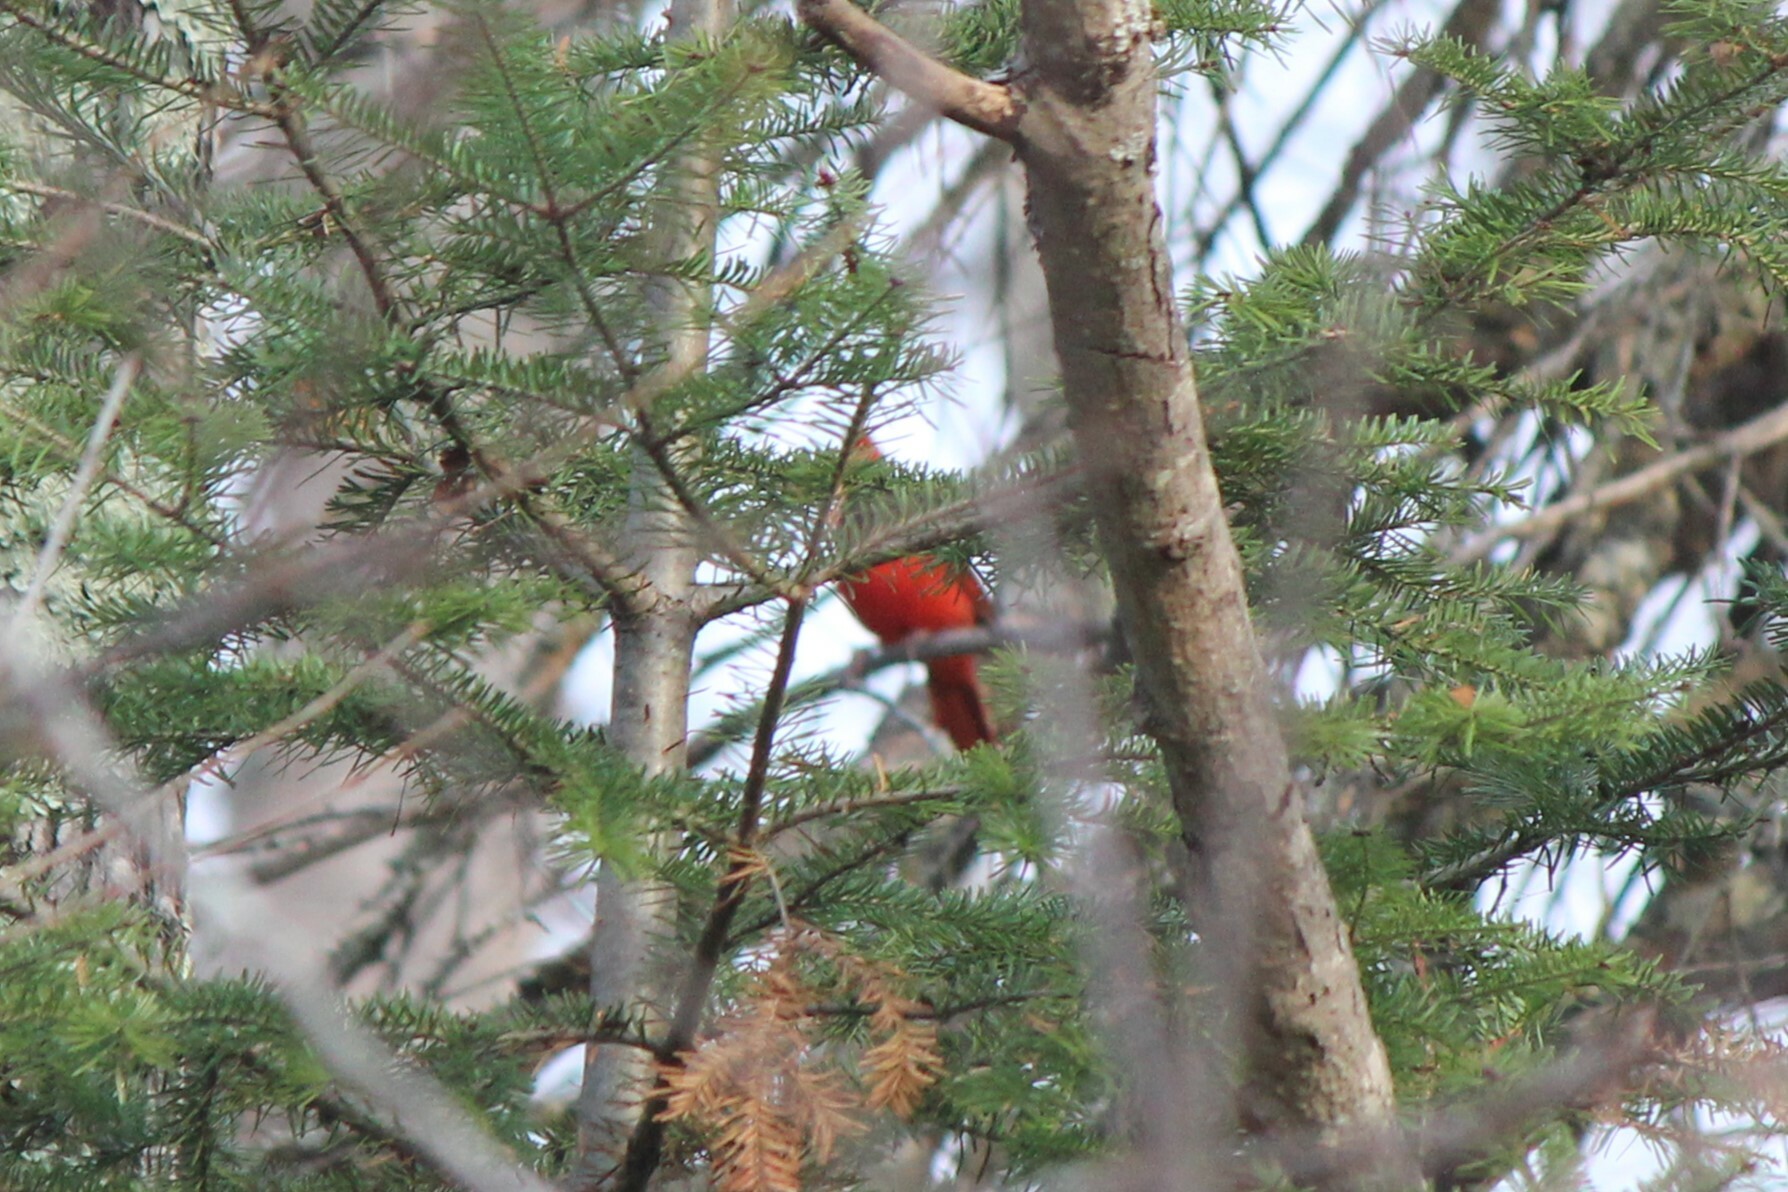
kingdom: Animalia
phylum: Chordata
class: Aves
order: Passeriformes
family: Cardinalidae
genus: Cardinalis
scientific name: Cardinalis cardinalis
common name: Northern cardinal
